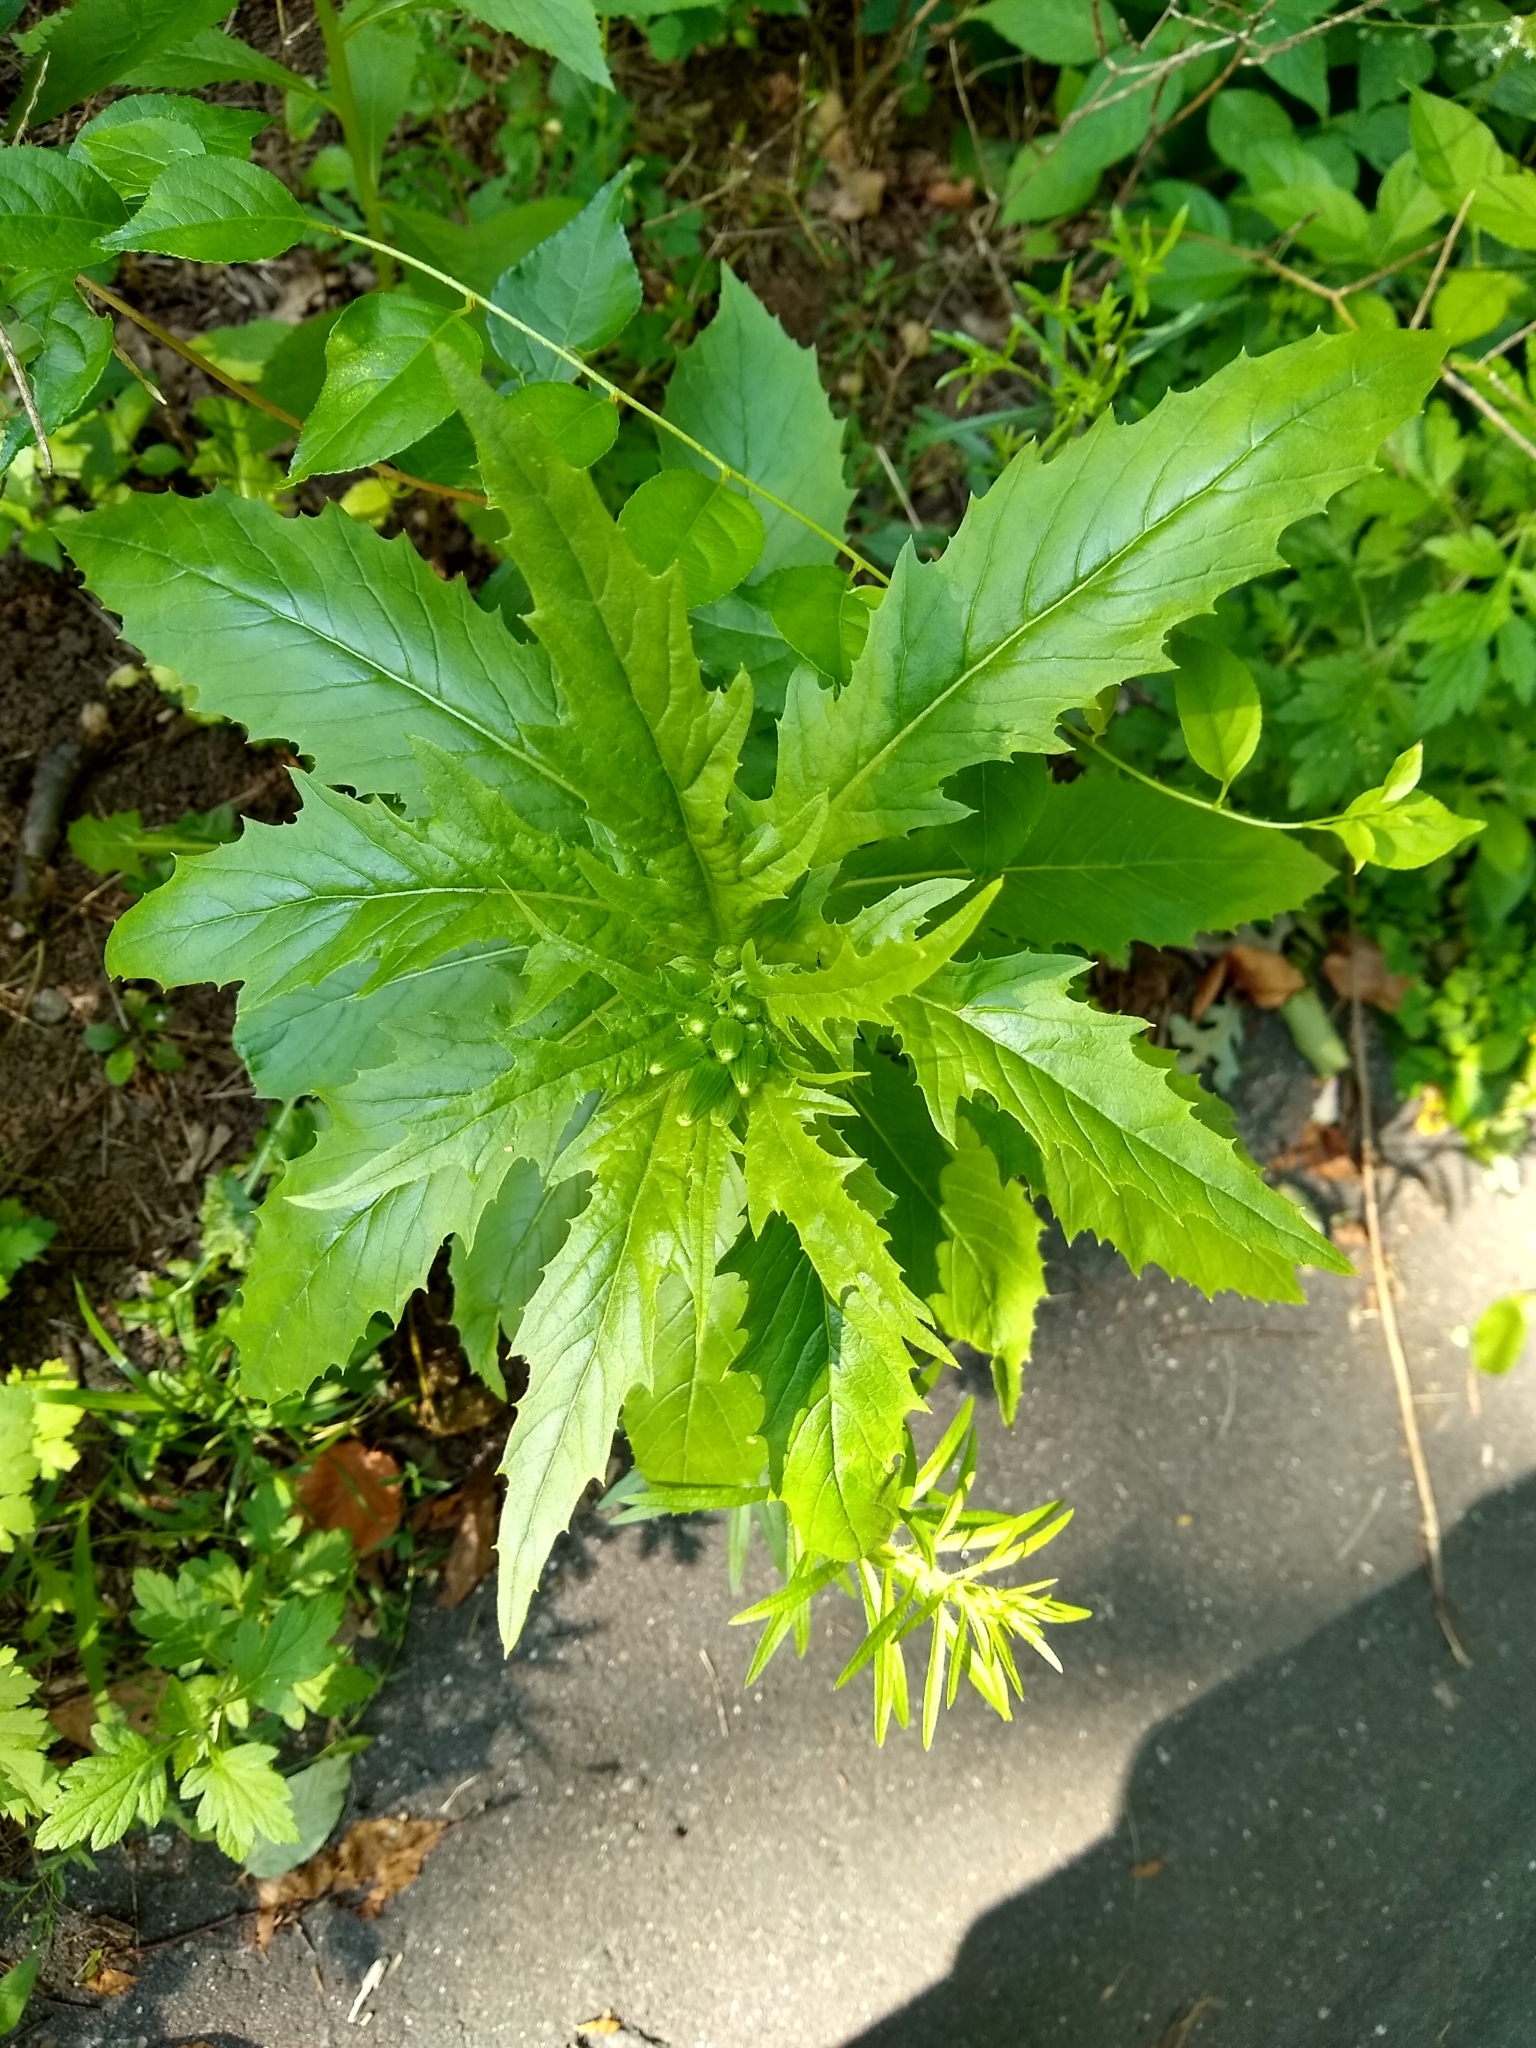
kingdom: Plantae
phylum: Tracheophyta
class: Magnoliopsida
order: Asterales
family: Asteraceae
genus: Erechtites
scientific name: Erechtites hieraciifolius
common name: American burnweed
